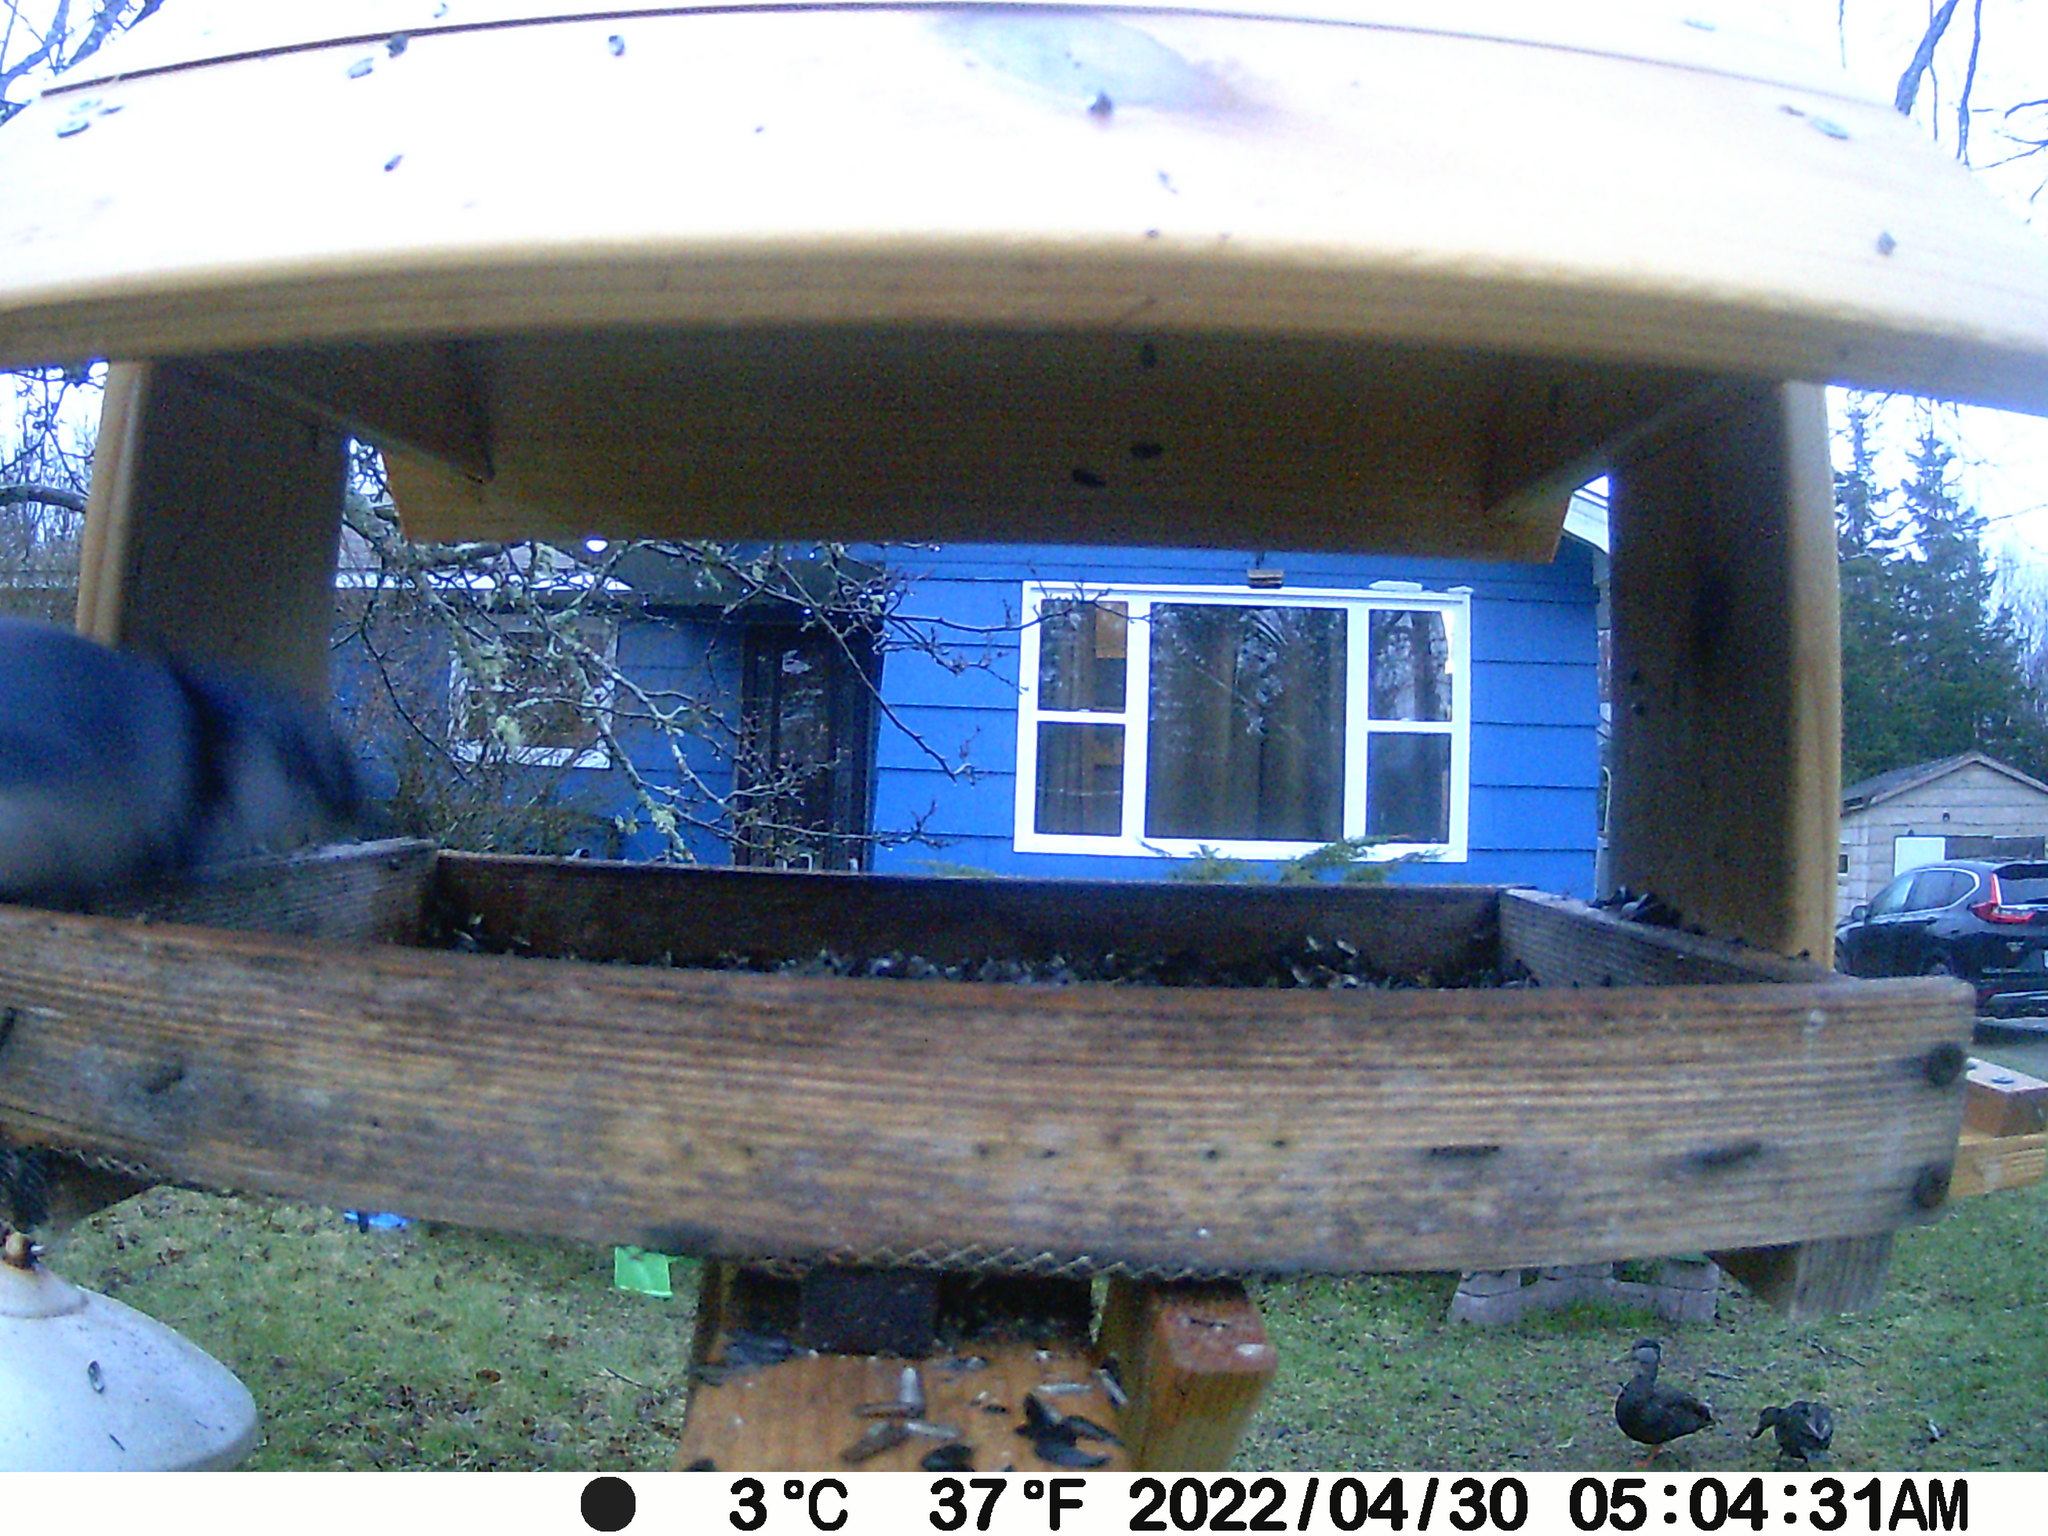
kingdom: Animalia
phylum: Chordata
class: Aves
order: Anseriformes
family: Anatidae
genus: Anas
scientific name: Anas rubripes
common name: American black duck
